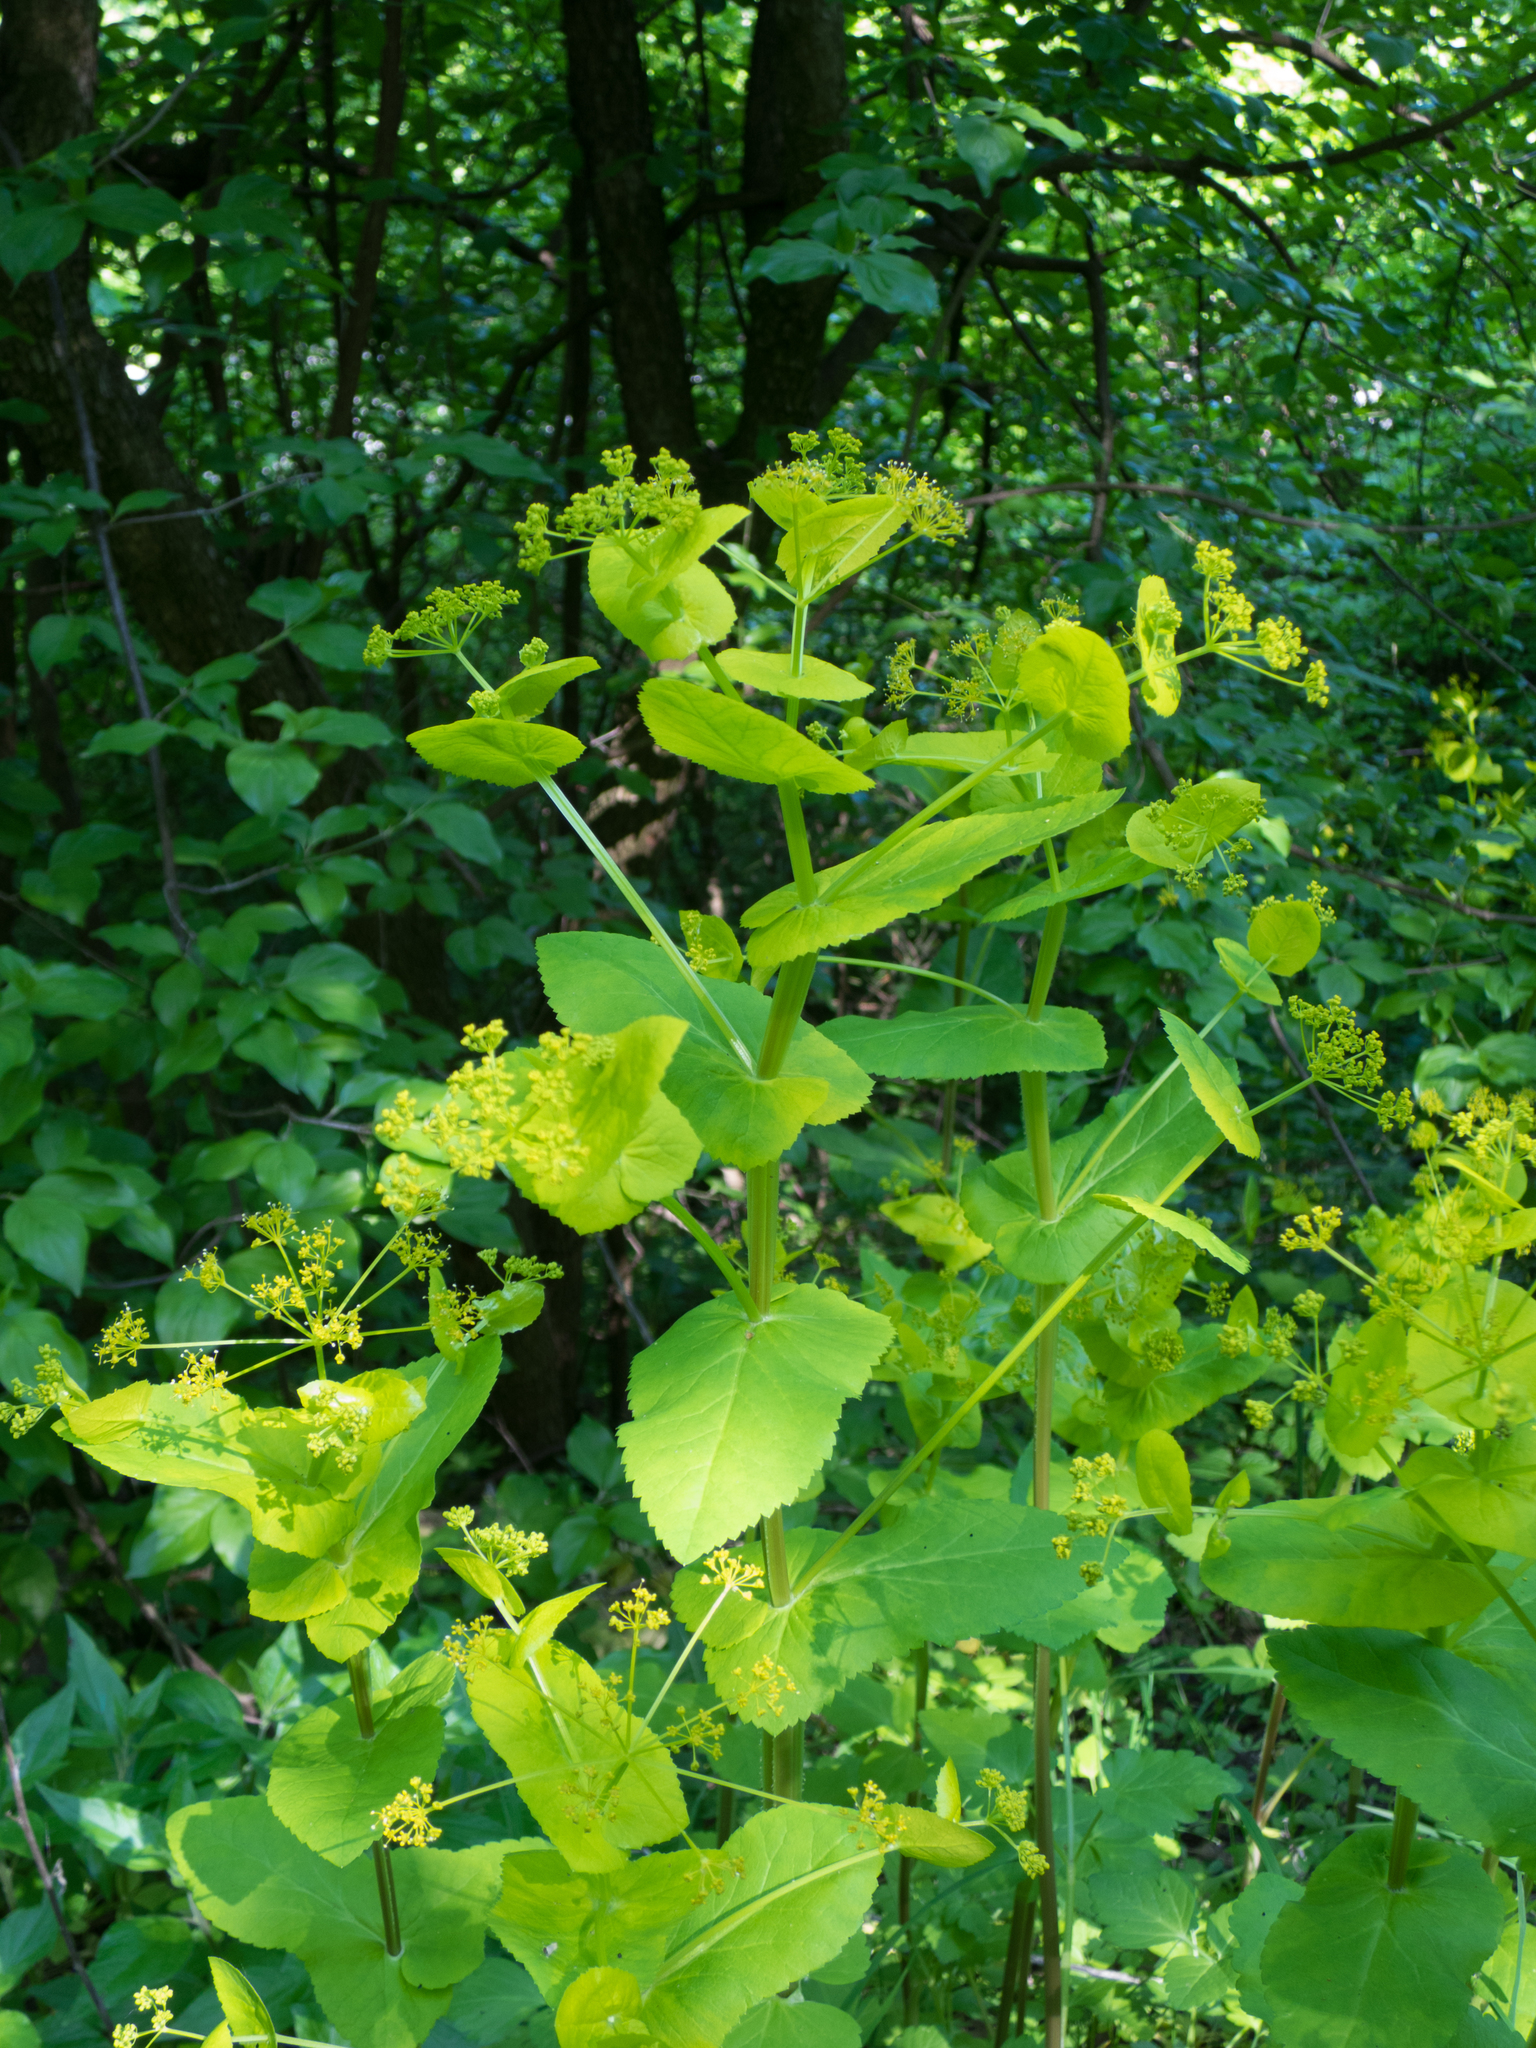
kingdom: Plantae
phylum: Tracheophyta
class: Magnoliopsida
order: Apiales
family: Apiaceae
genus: Smyrnium
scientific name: Smyrnium perfoliatum
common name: Perfoliate alexanders
